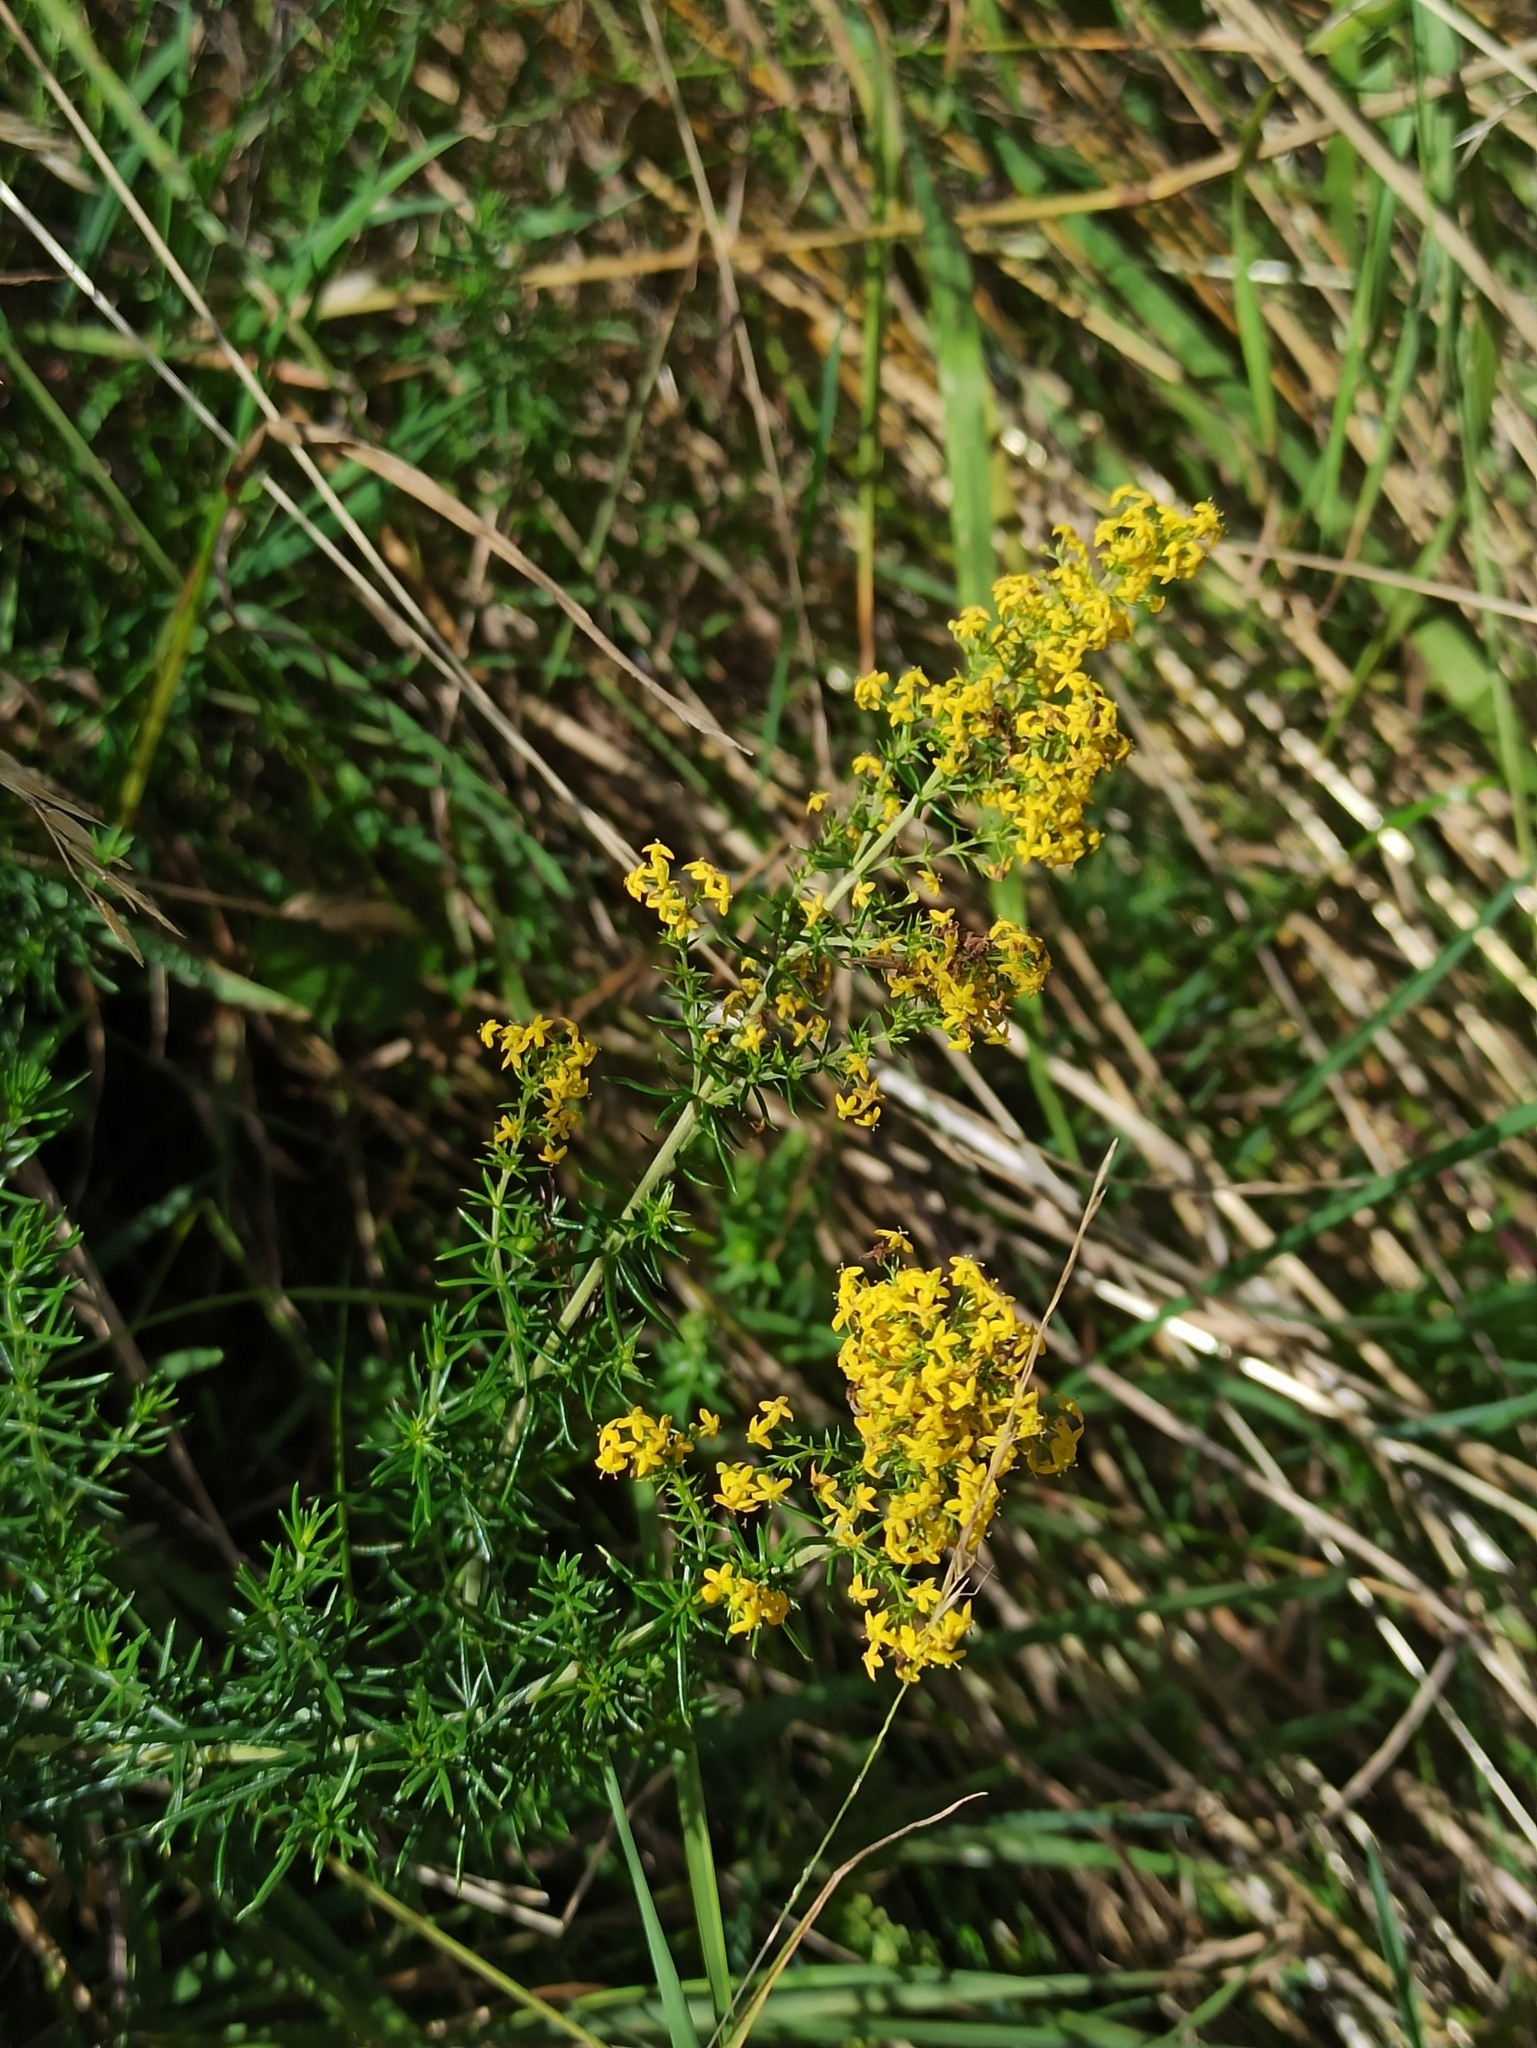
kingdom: Plantae
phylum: Tracheophyta
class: Magnoliopsida
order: Gentianales
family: Rubiaceae
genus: Galium
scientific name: Galium verum
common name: Lady's bedstraw
